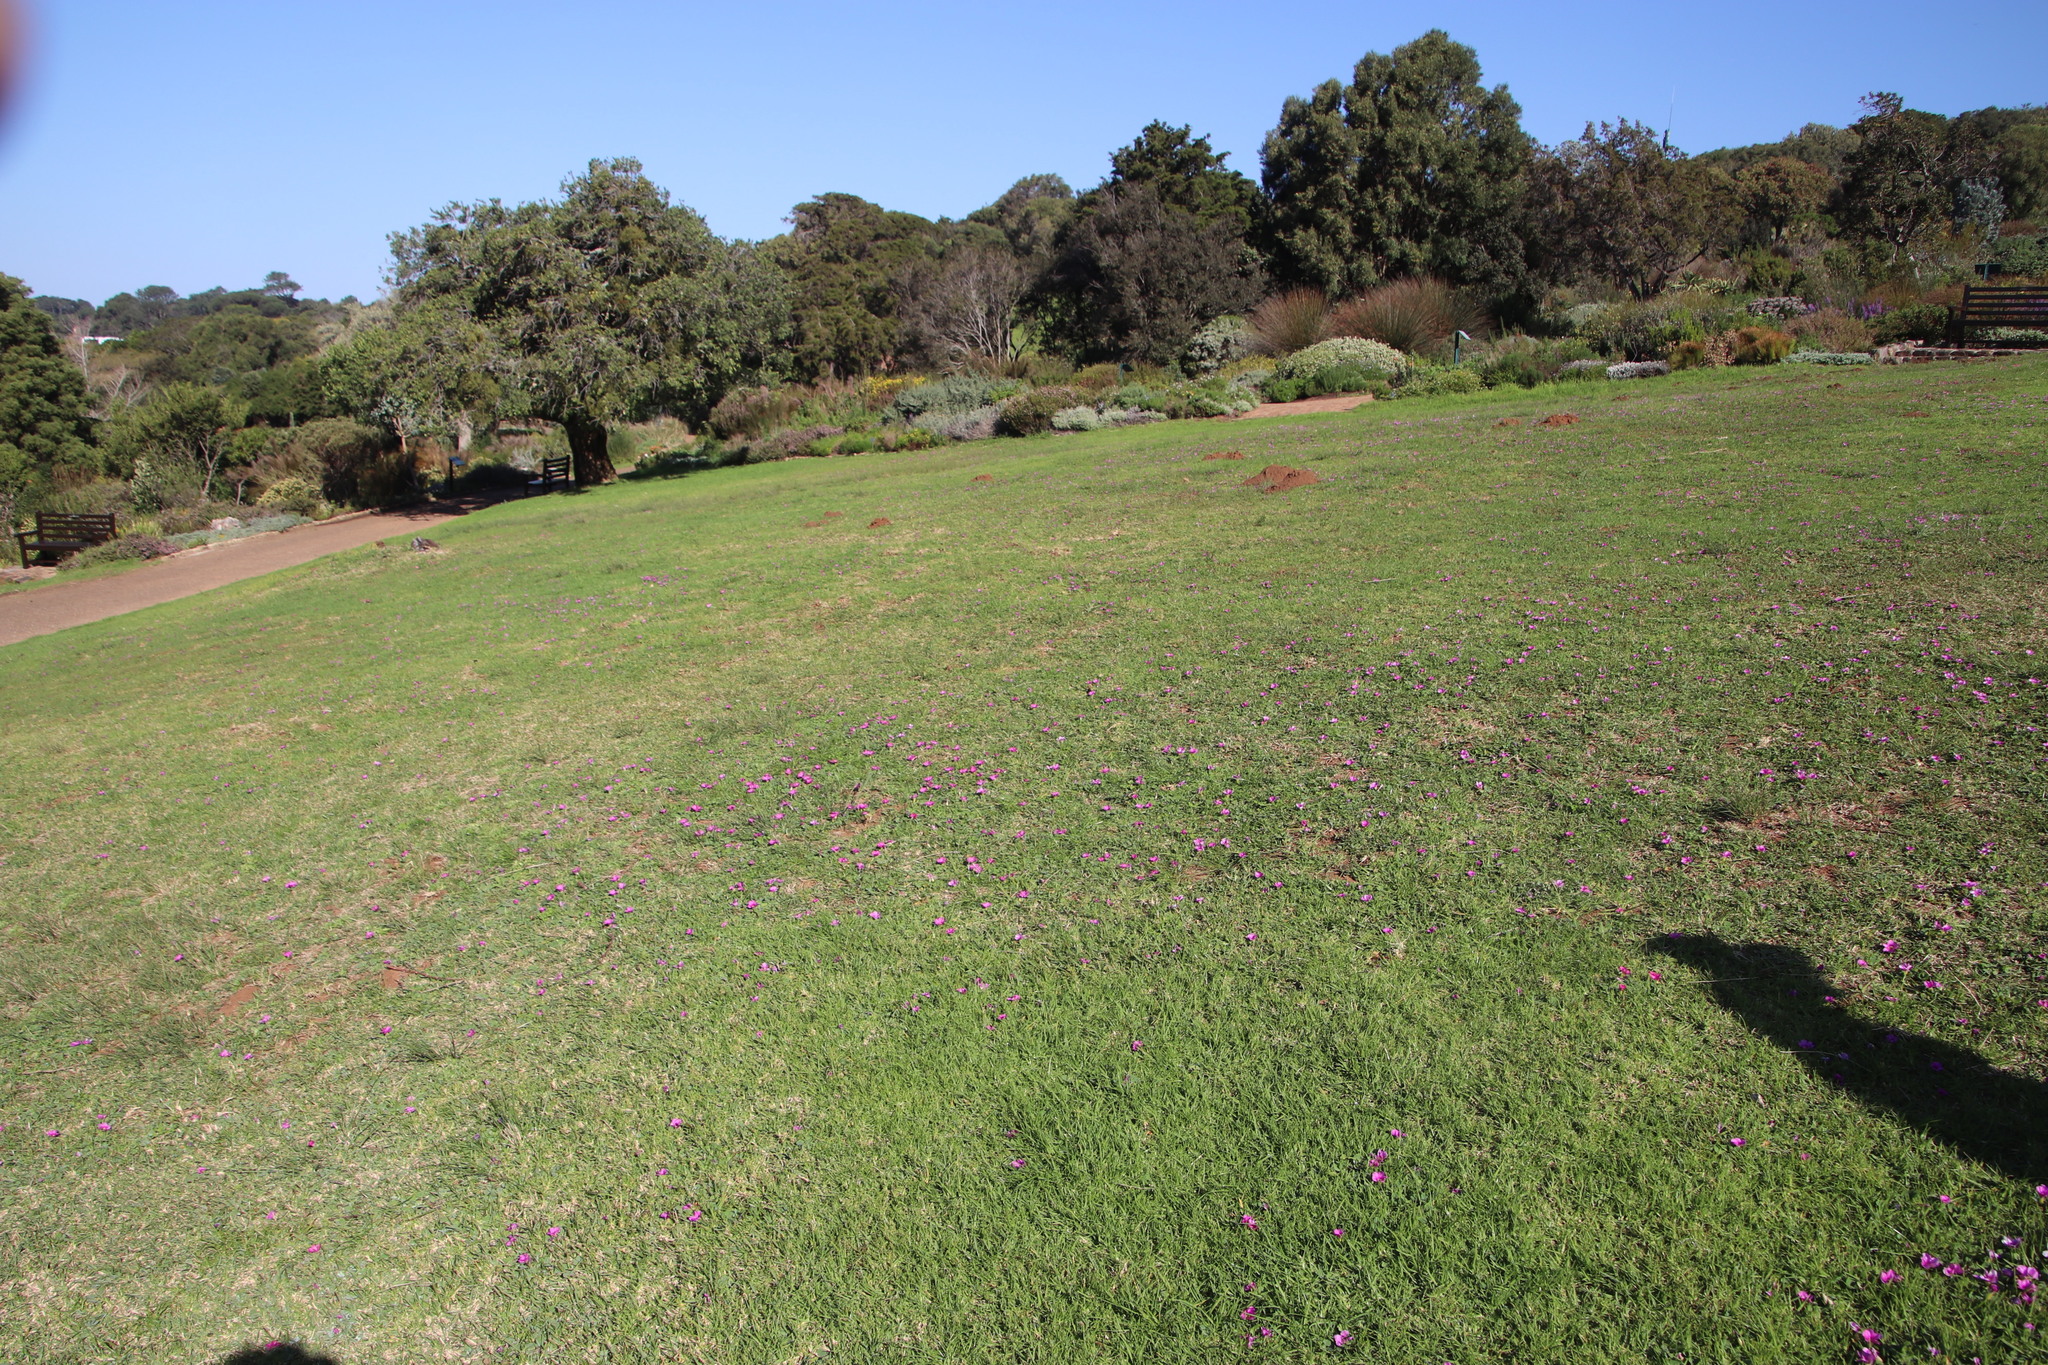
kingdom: Plantae
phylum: Tracheophyta
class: Magnoliopsida
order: Oxalidales
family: Oxalidaceae
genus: Oxalis
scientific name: Oxalis purpurea
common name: Purple woodsorrel
